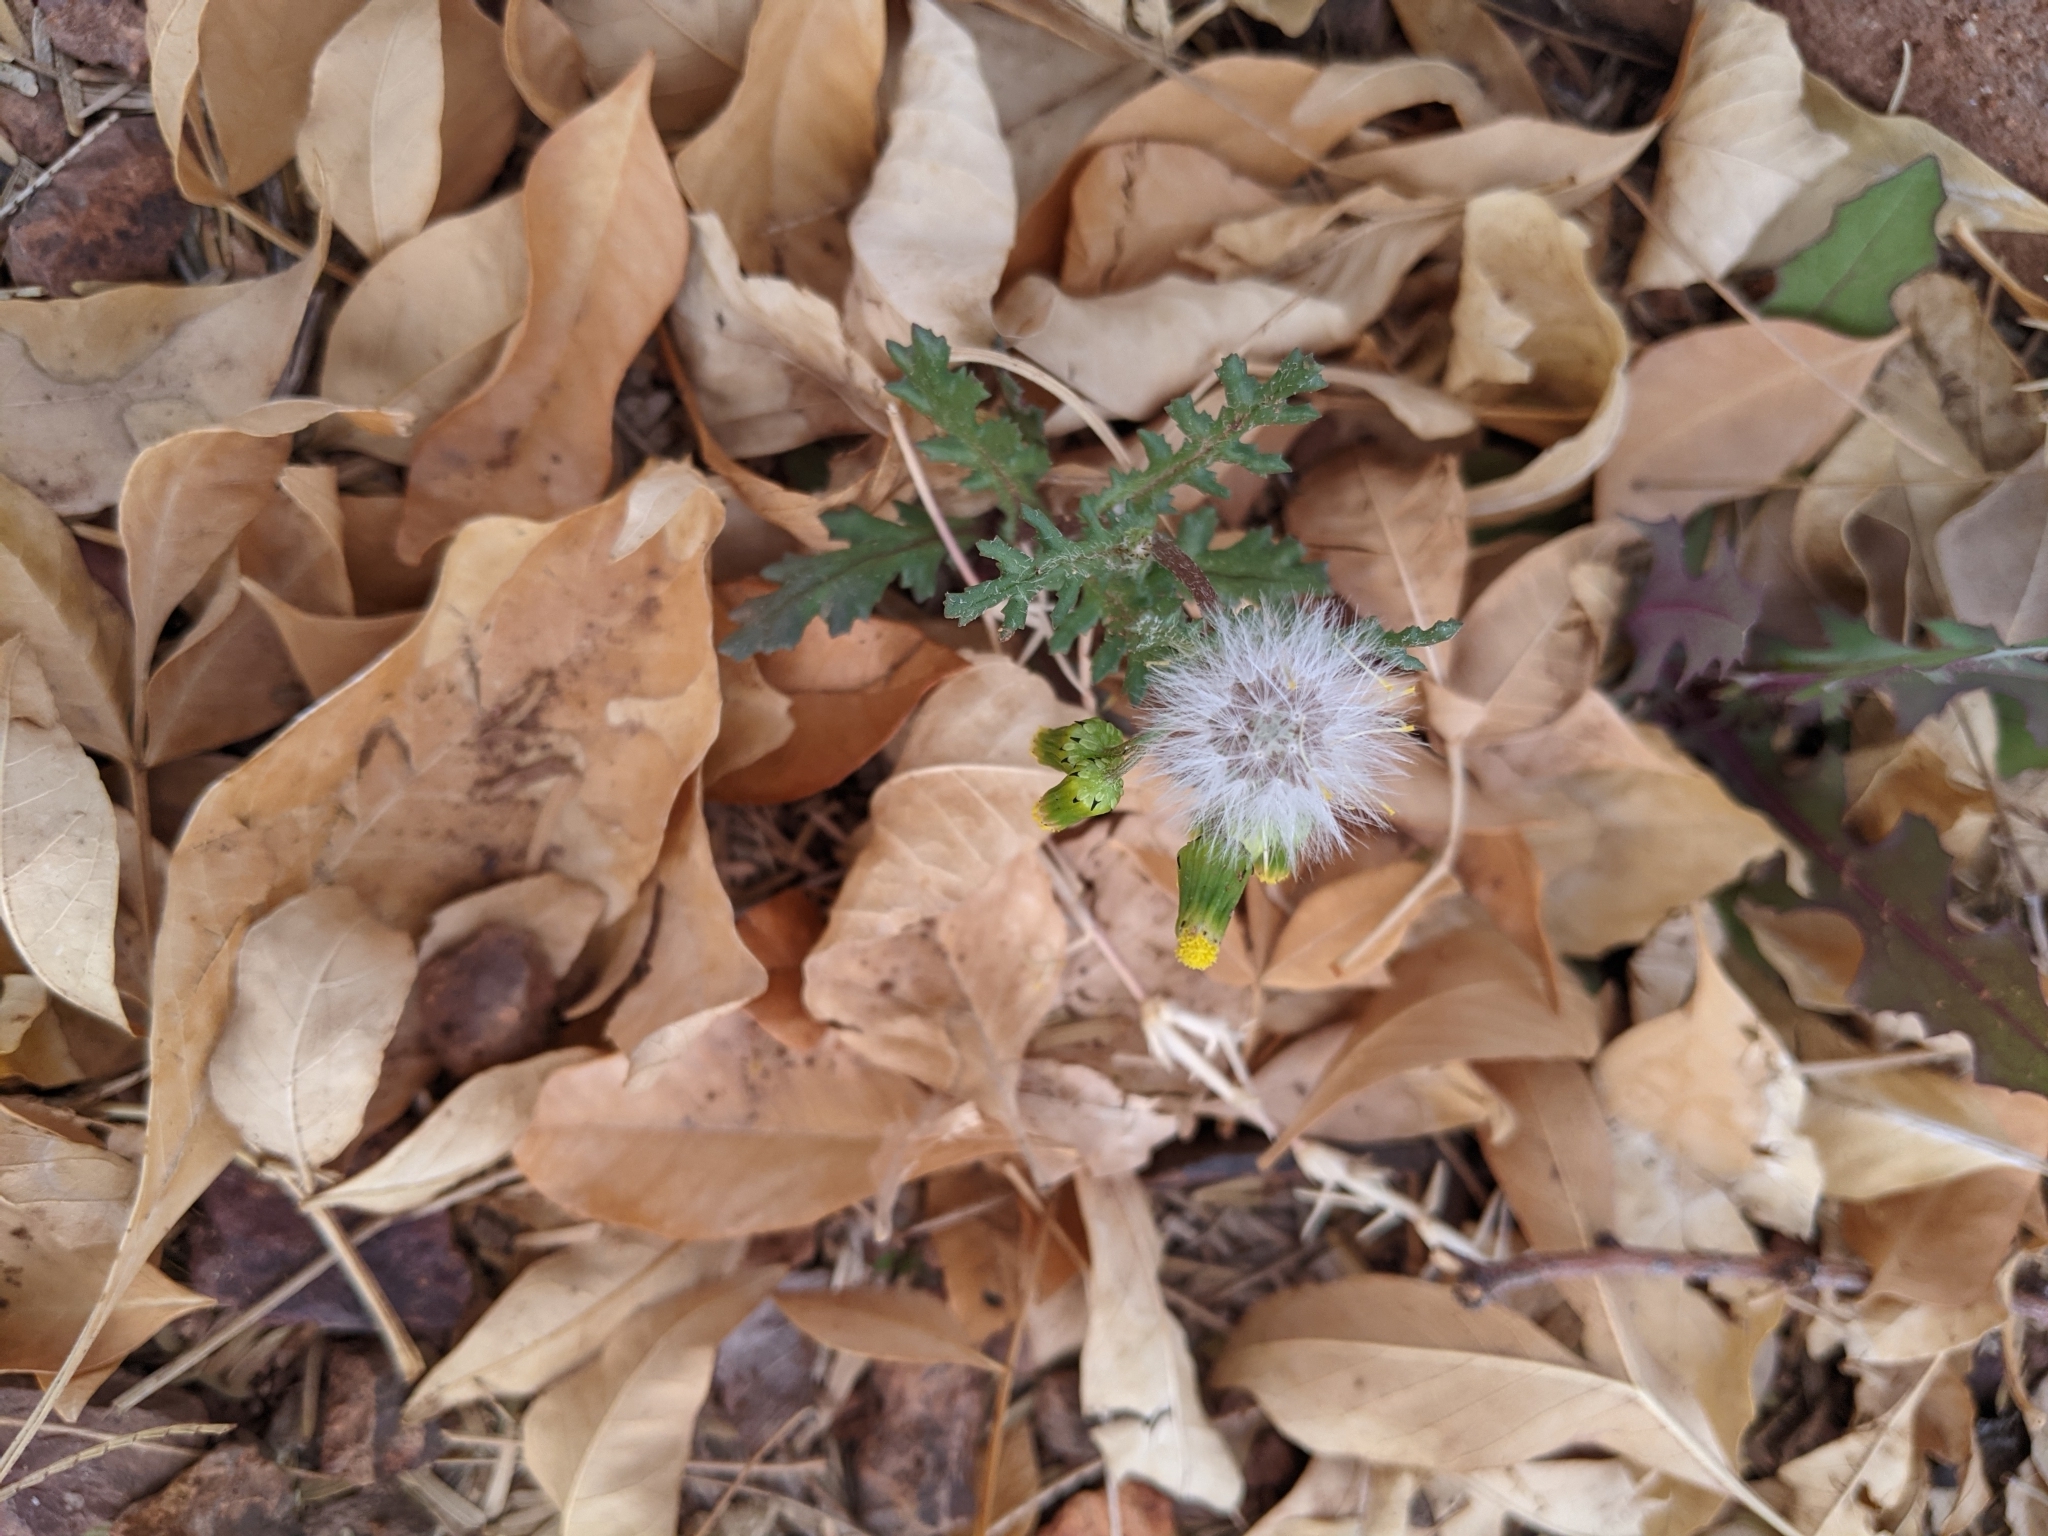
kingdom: Plantae
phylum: Tracheophyta
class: Magnoliopsida
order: Asterales
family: Asteraceae
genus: Senecio
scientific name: Senecio vulgaris
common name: Old-man-in-the-spring
